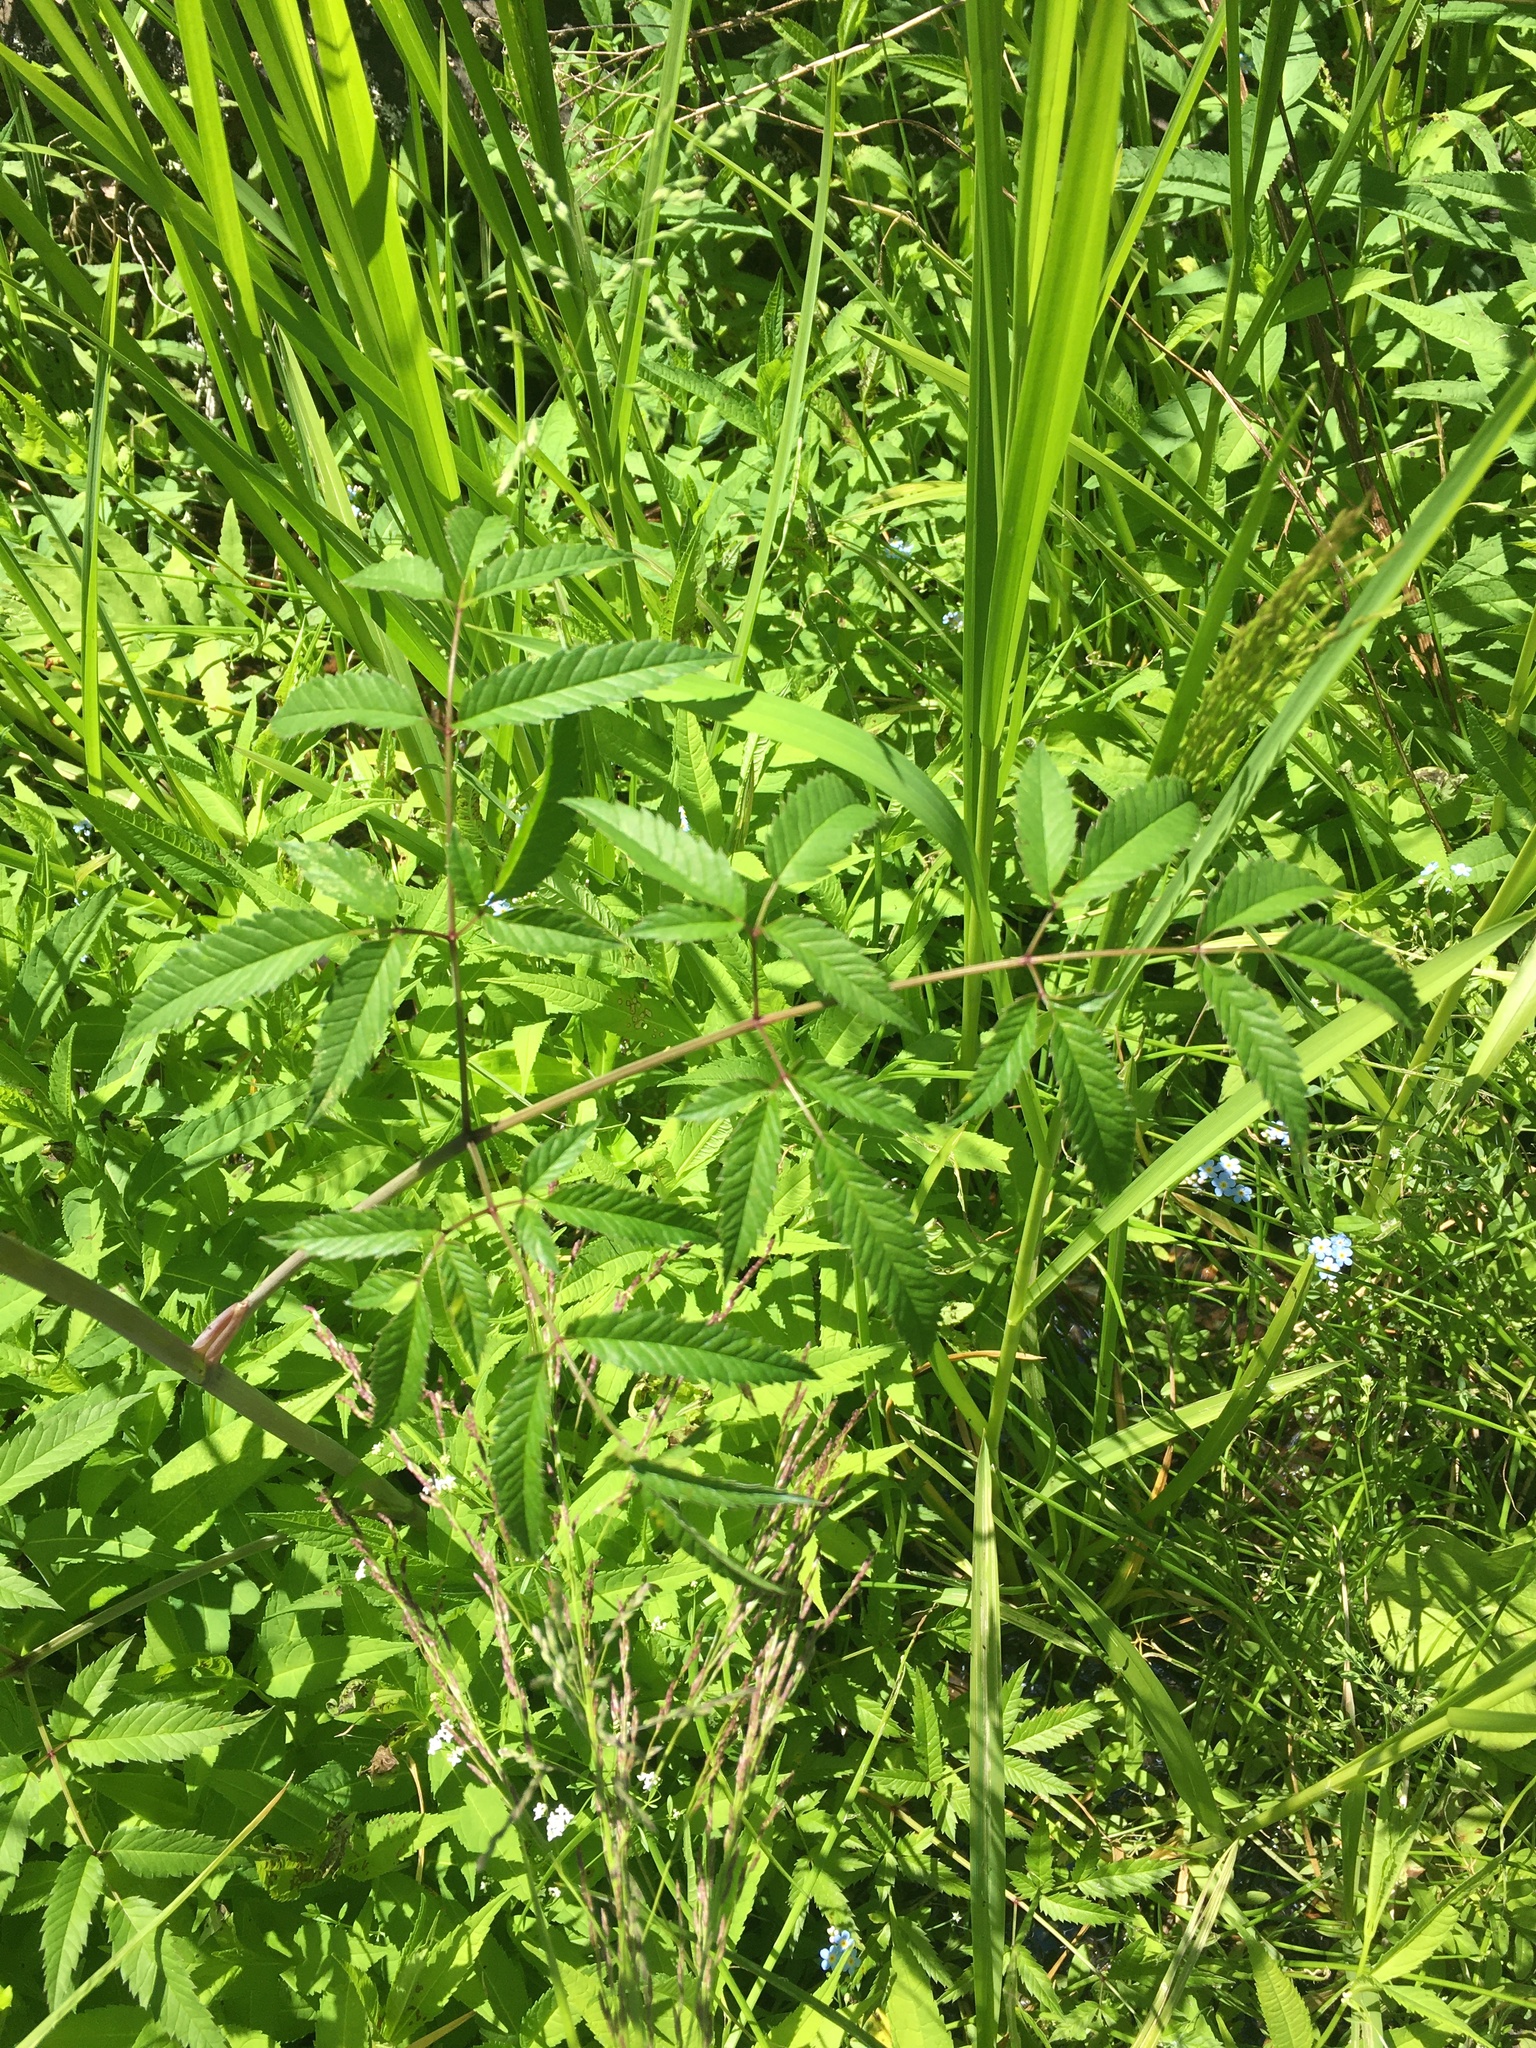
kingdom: Plantae
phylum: Tracheophyta
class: Magnoliopsida
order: Apiales
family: Apiaceae
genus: Cicuta
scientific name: Cicuta maculata
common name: Spotted cowbane
